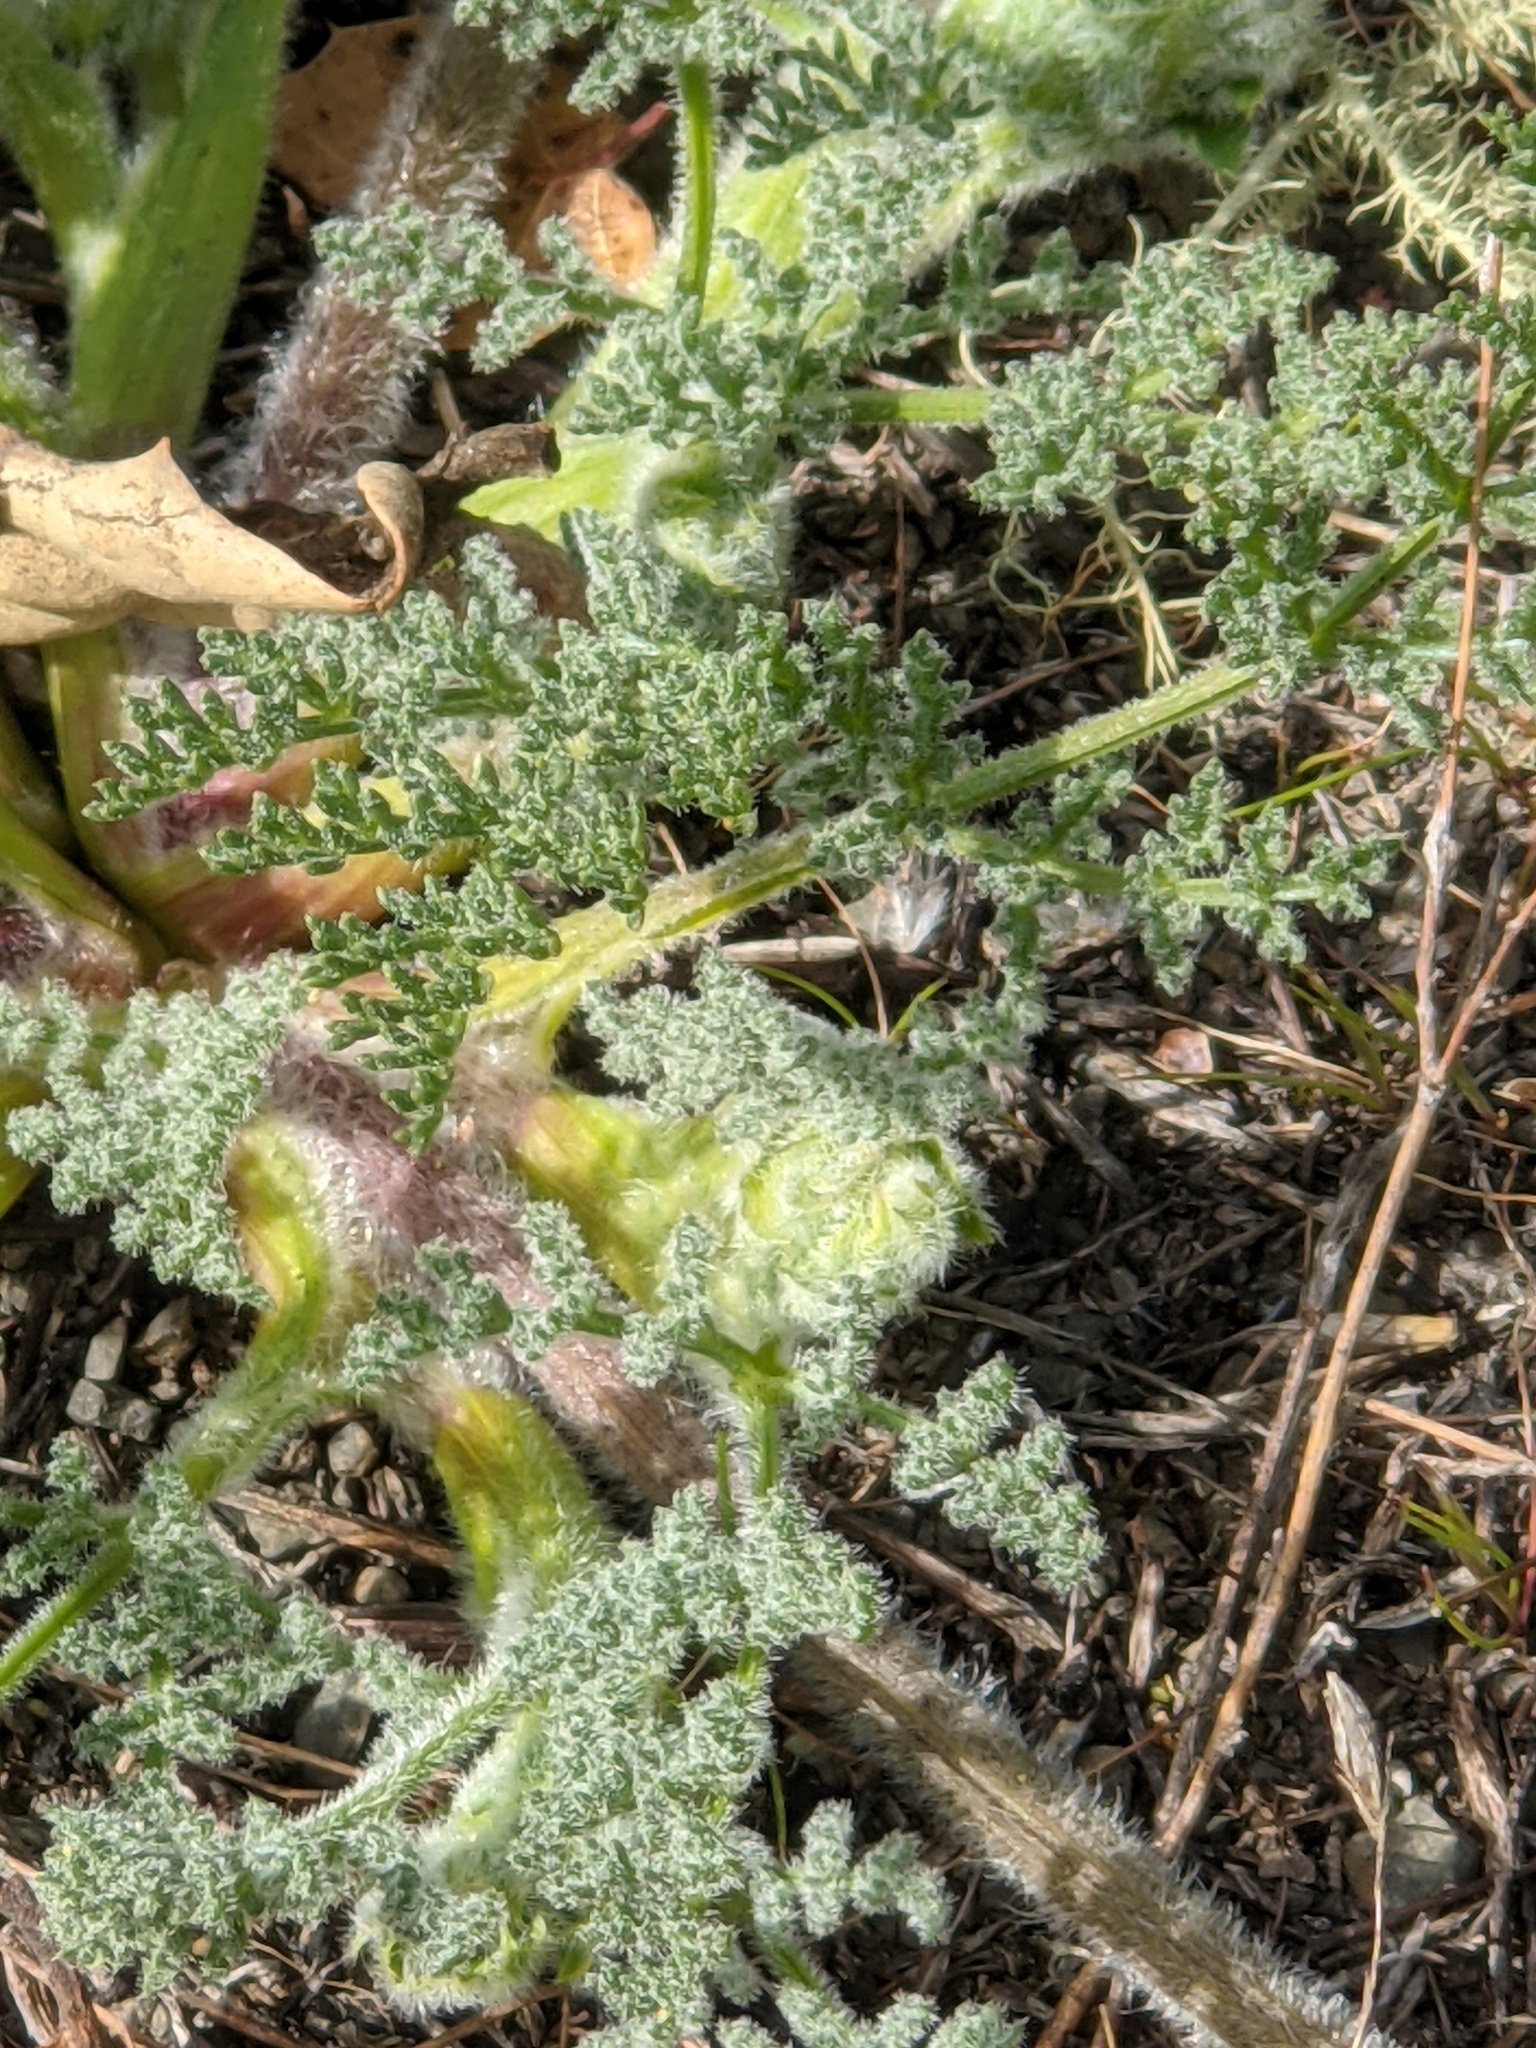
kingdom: Plantae
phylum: Tracheophyta
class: Magnoliopsida
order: Apiales
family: Apiaceae
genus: Lomatium
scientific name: Lomatium dasycarpum
